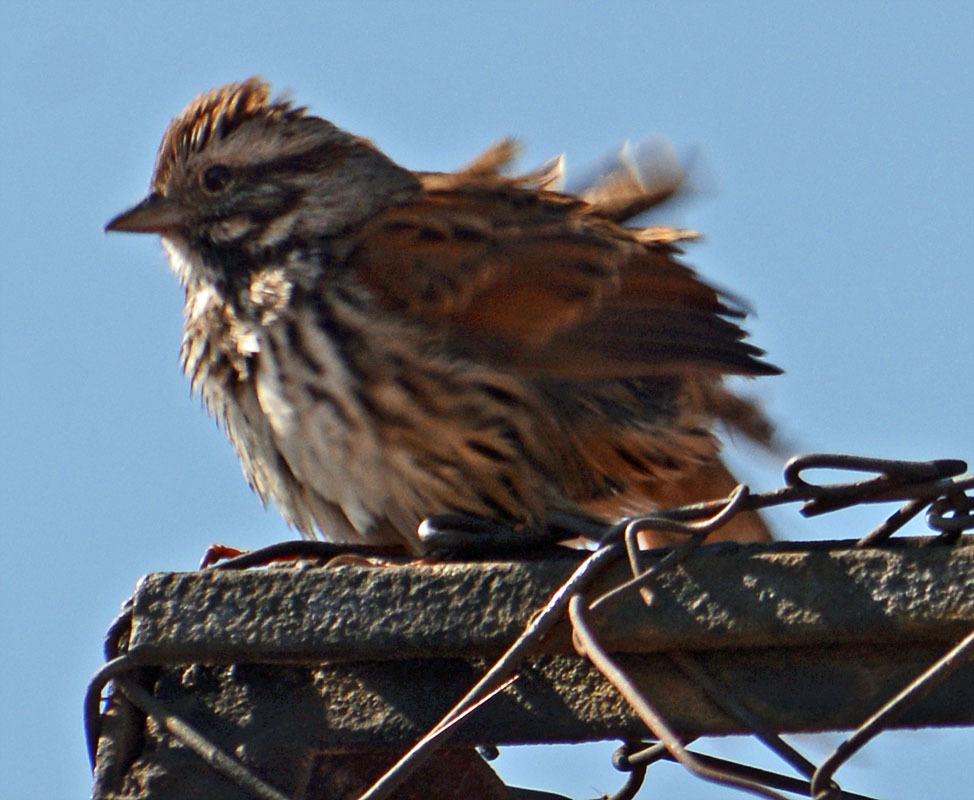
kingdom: Animalia
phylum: Chordata
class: Aves
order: Passeriformes
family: Passerellidae
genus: Melospiza
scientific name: Melospiza melodia
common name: Song sparrow
